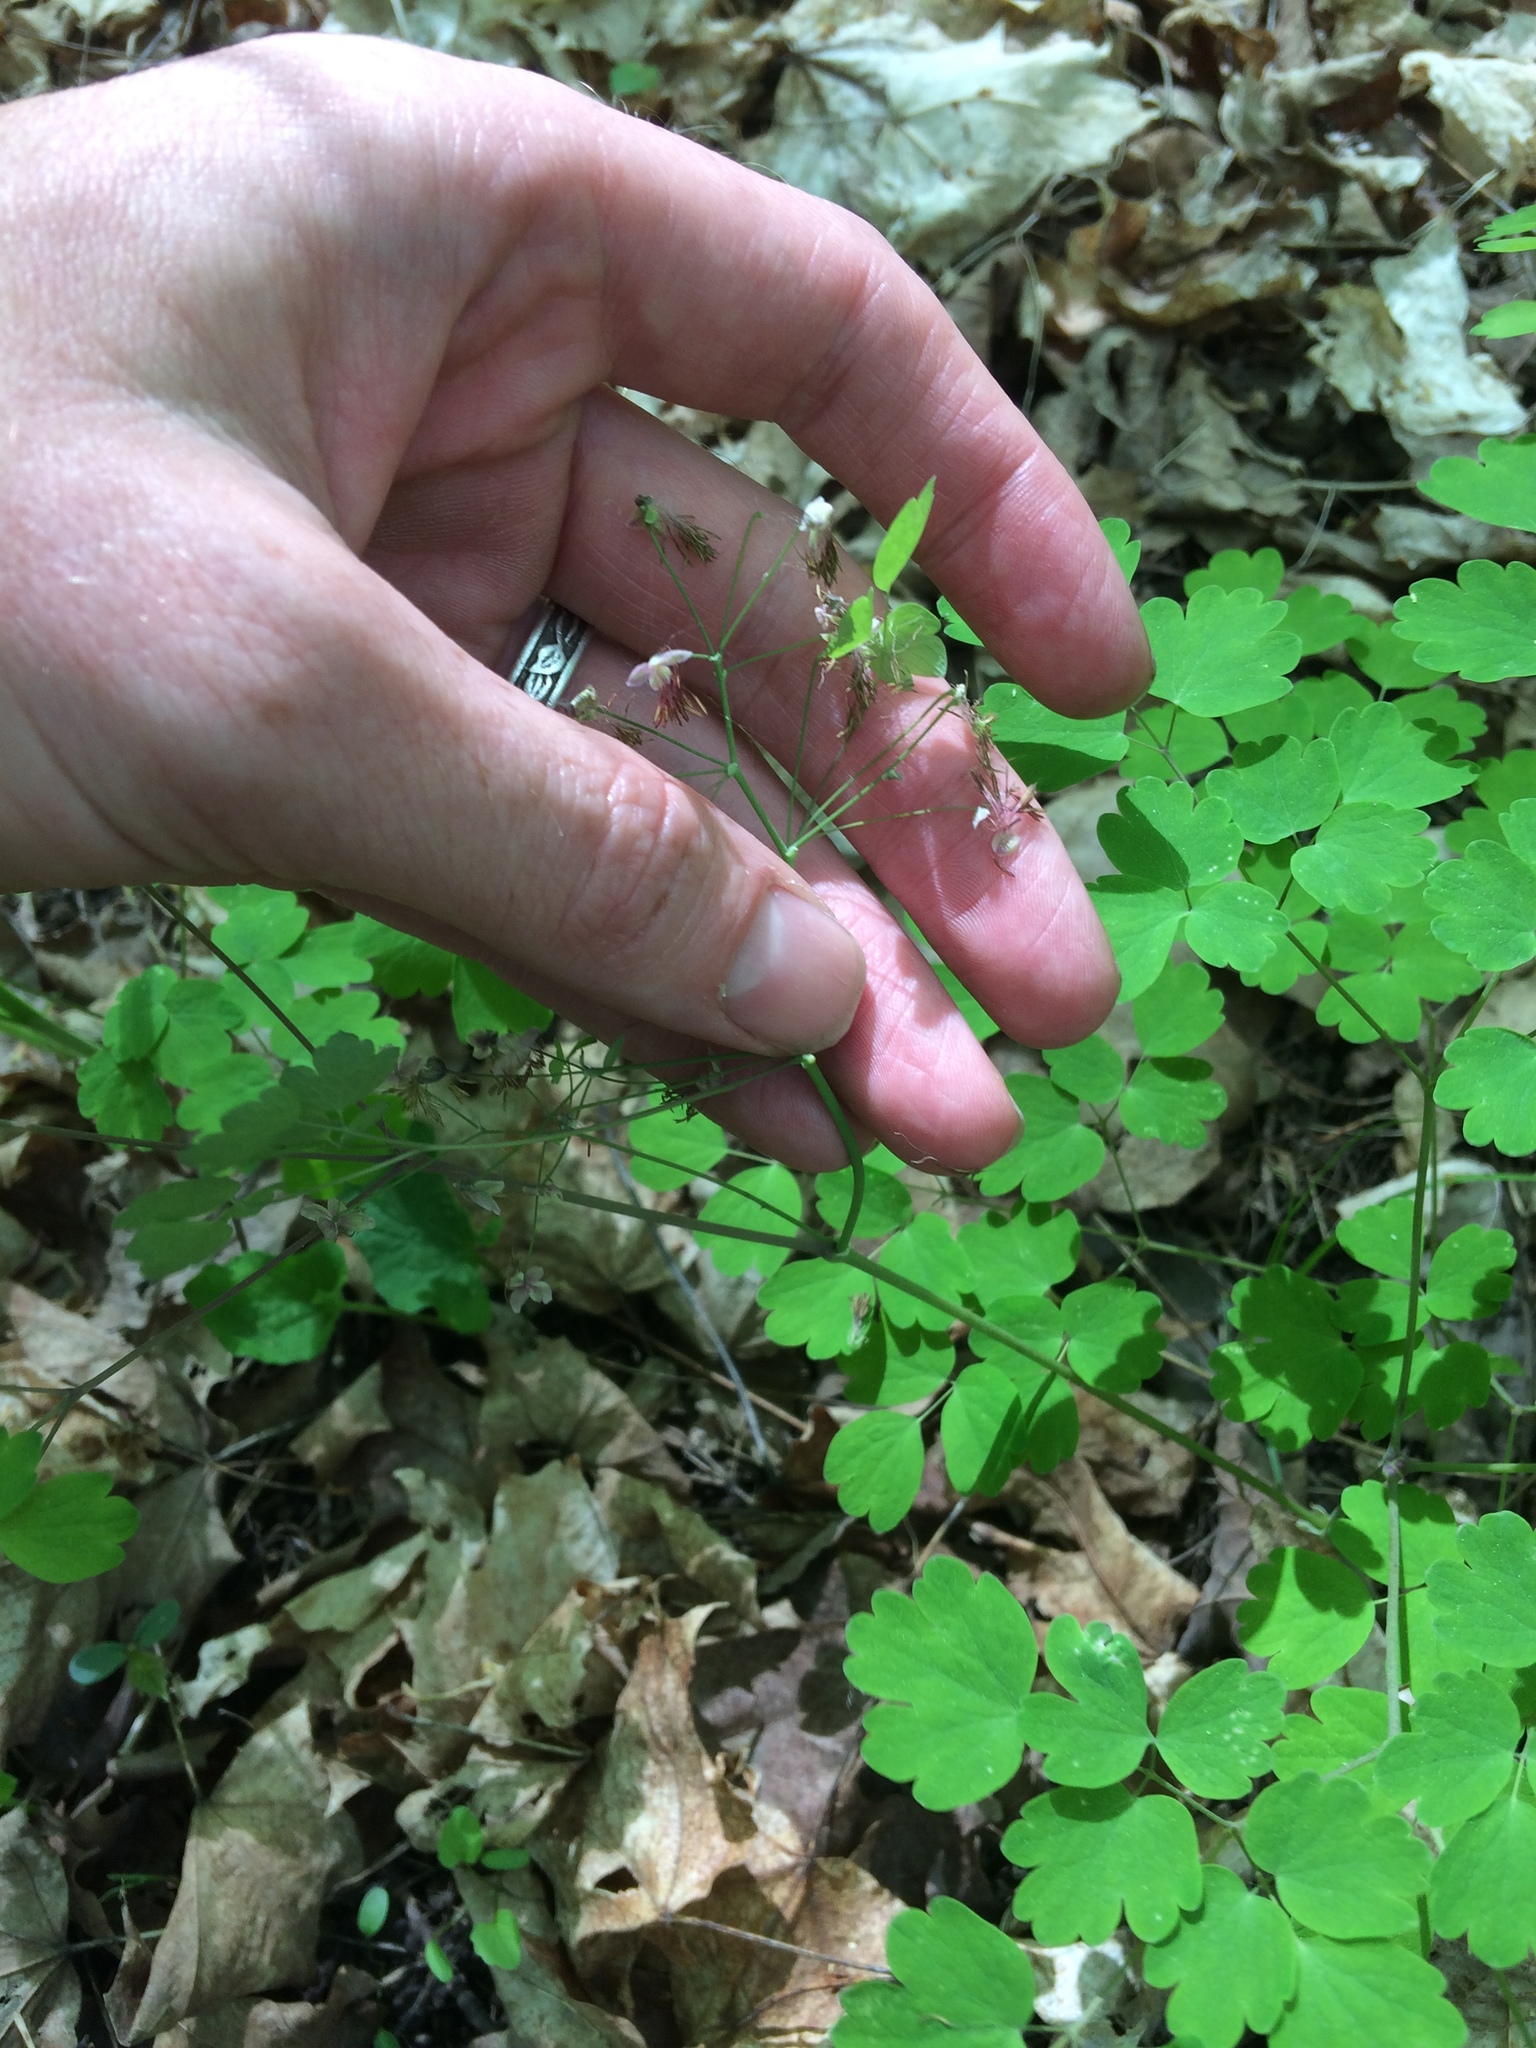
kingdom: Plantae
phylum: Tracheophyta
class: Magnoliopsida
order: Ranunculales
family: Ranunculaceae
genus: Thalictrum
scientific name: Thalictrum dioicum
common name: Early meadow-rue
